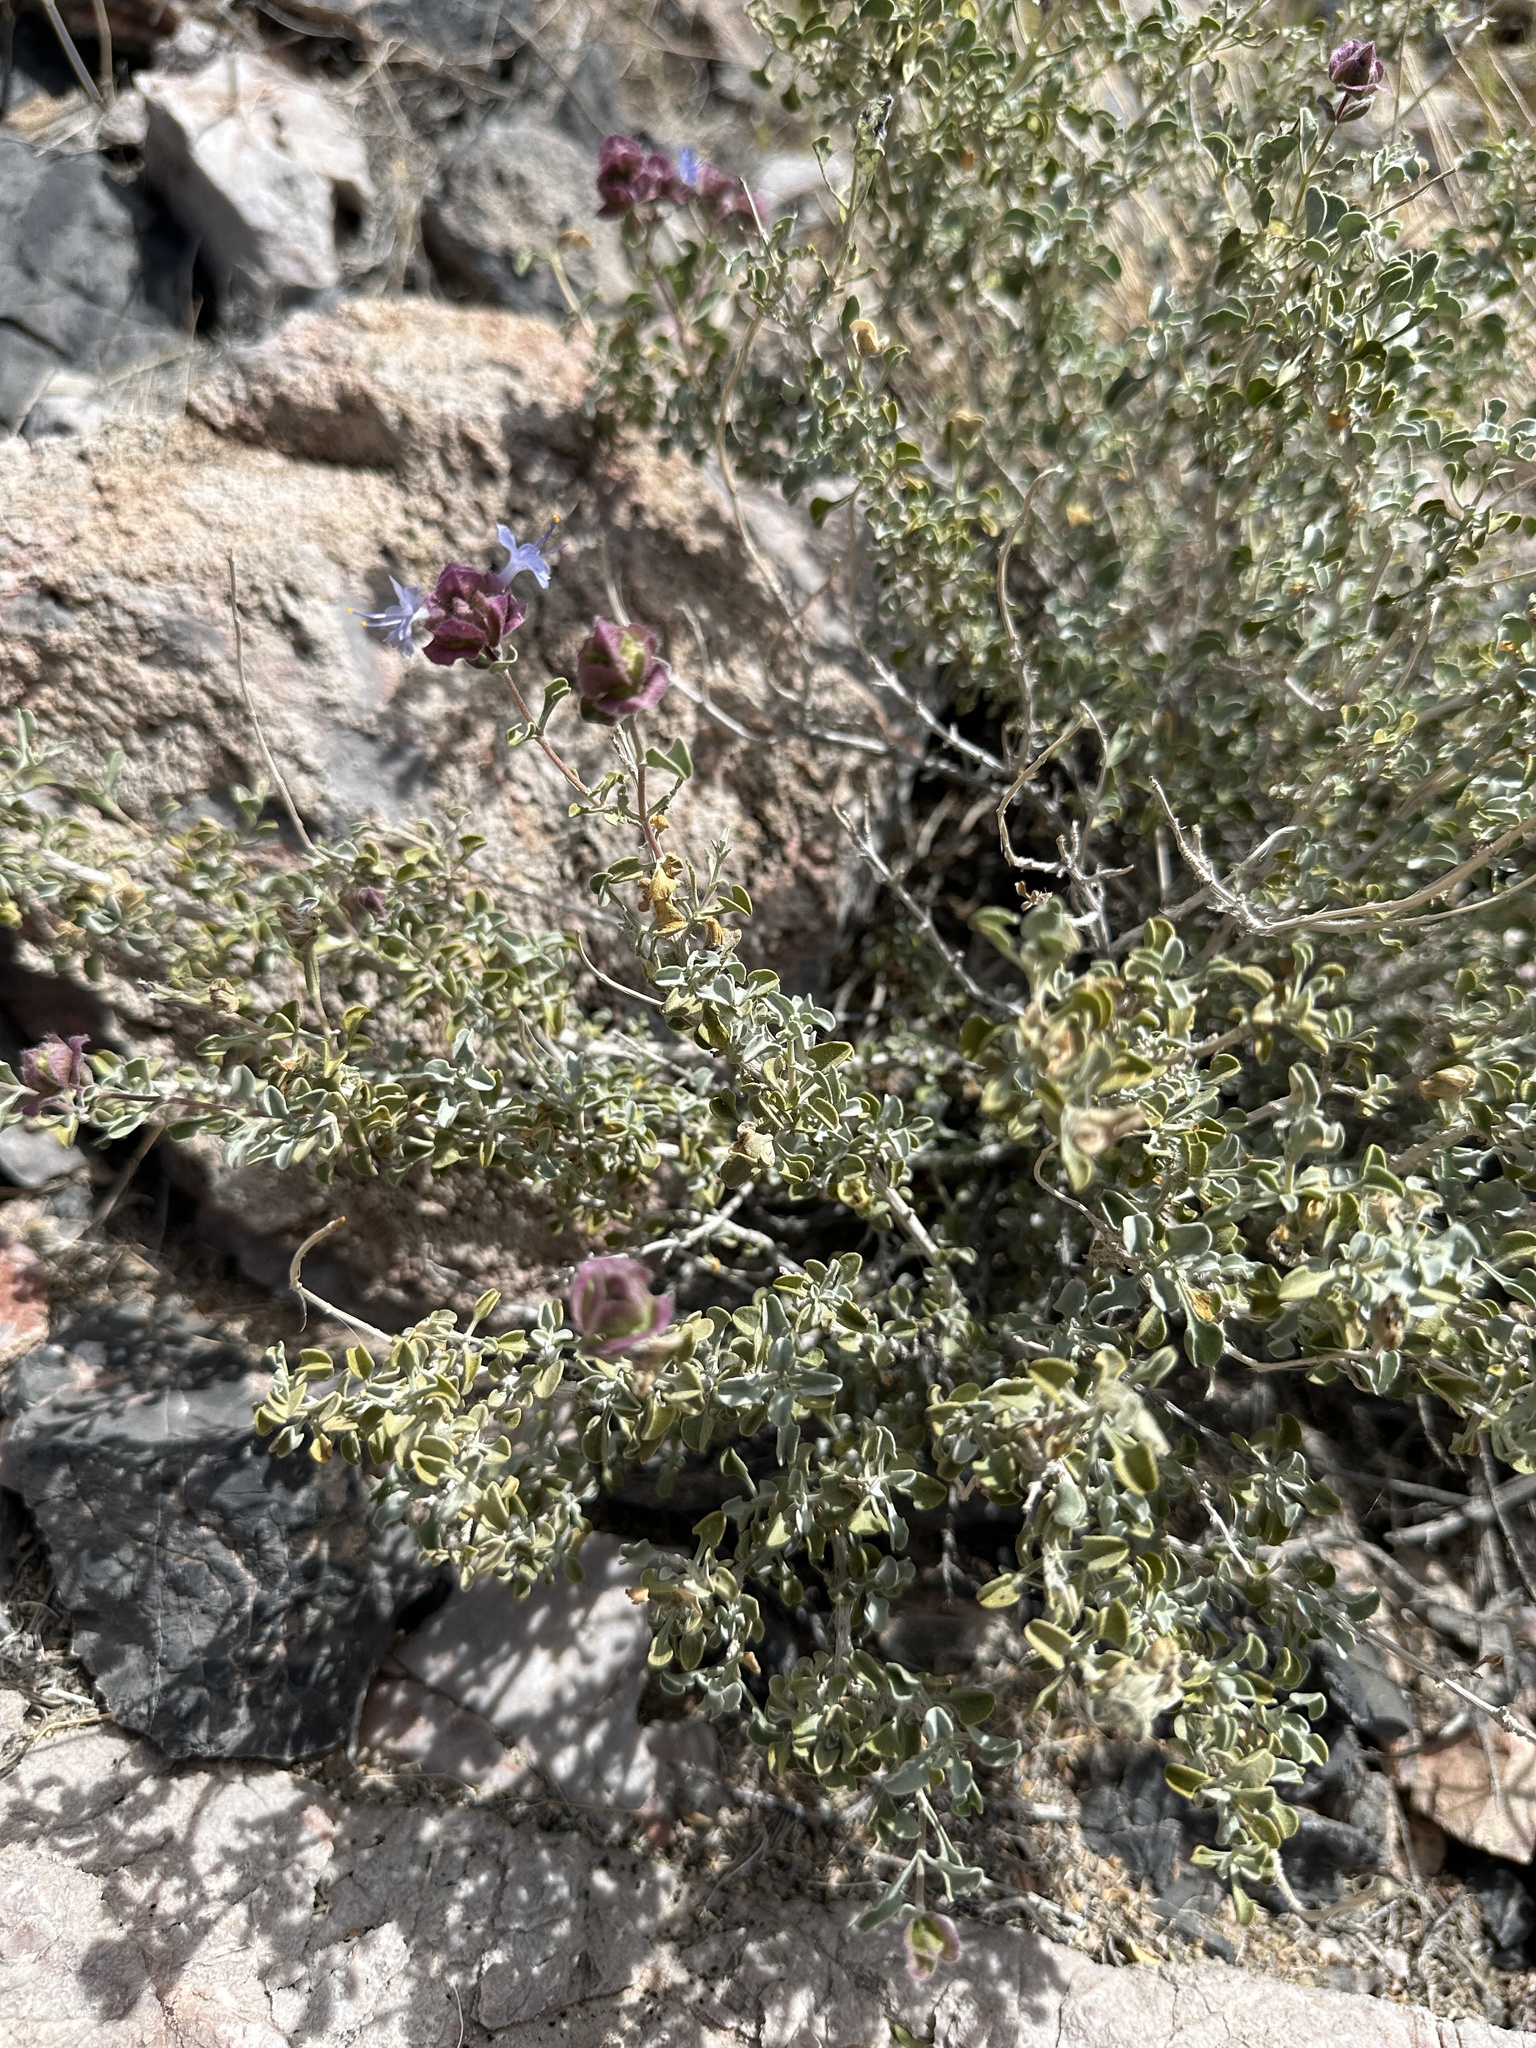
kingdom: Plantae
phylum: Tracheophyta
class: Magnoliopsida
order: Lamiales
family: Lamiaceae
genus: Salvia
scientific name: Salvia dorrii
